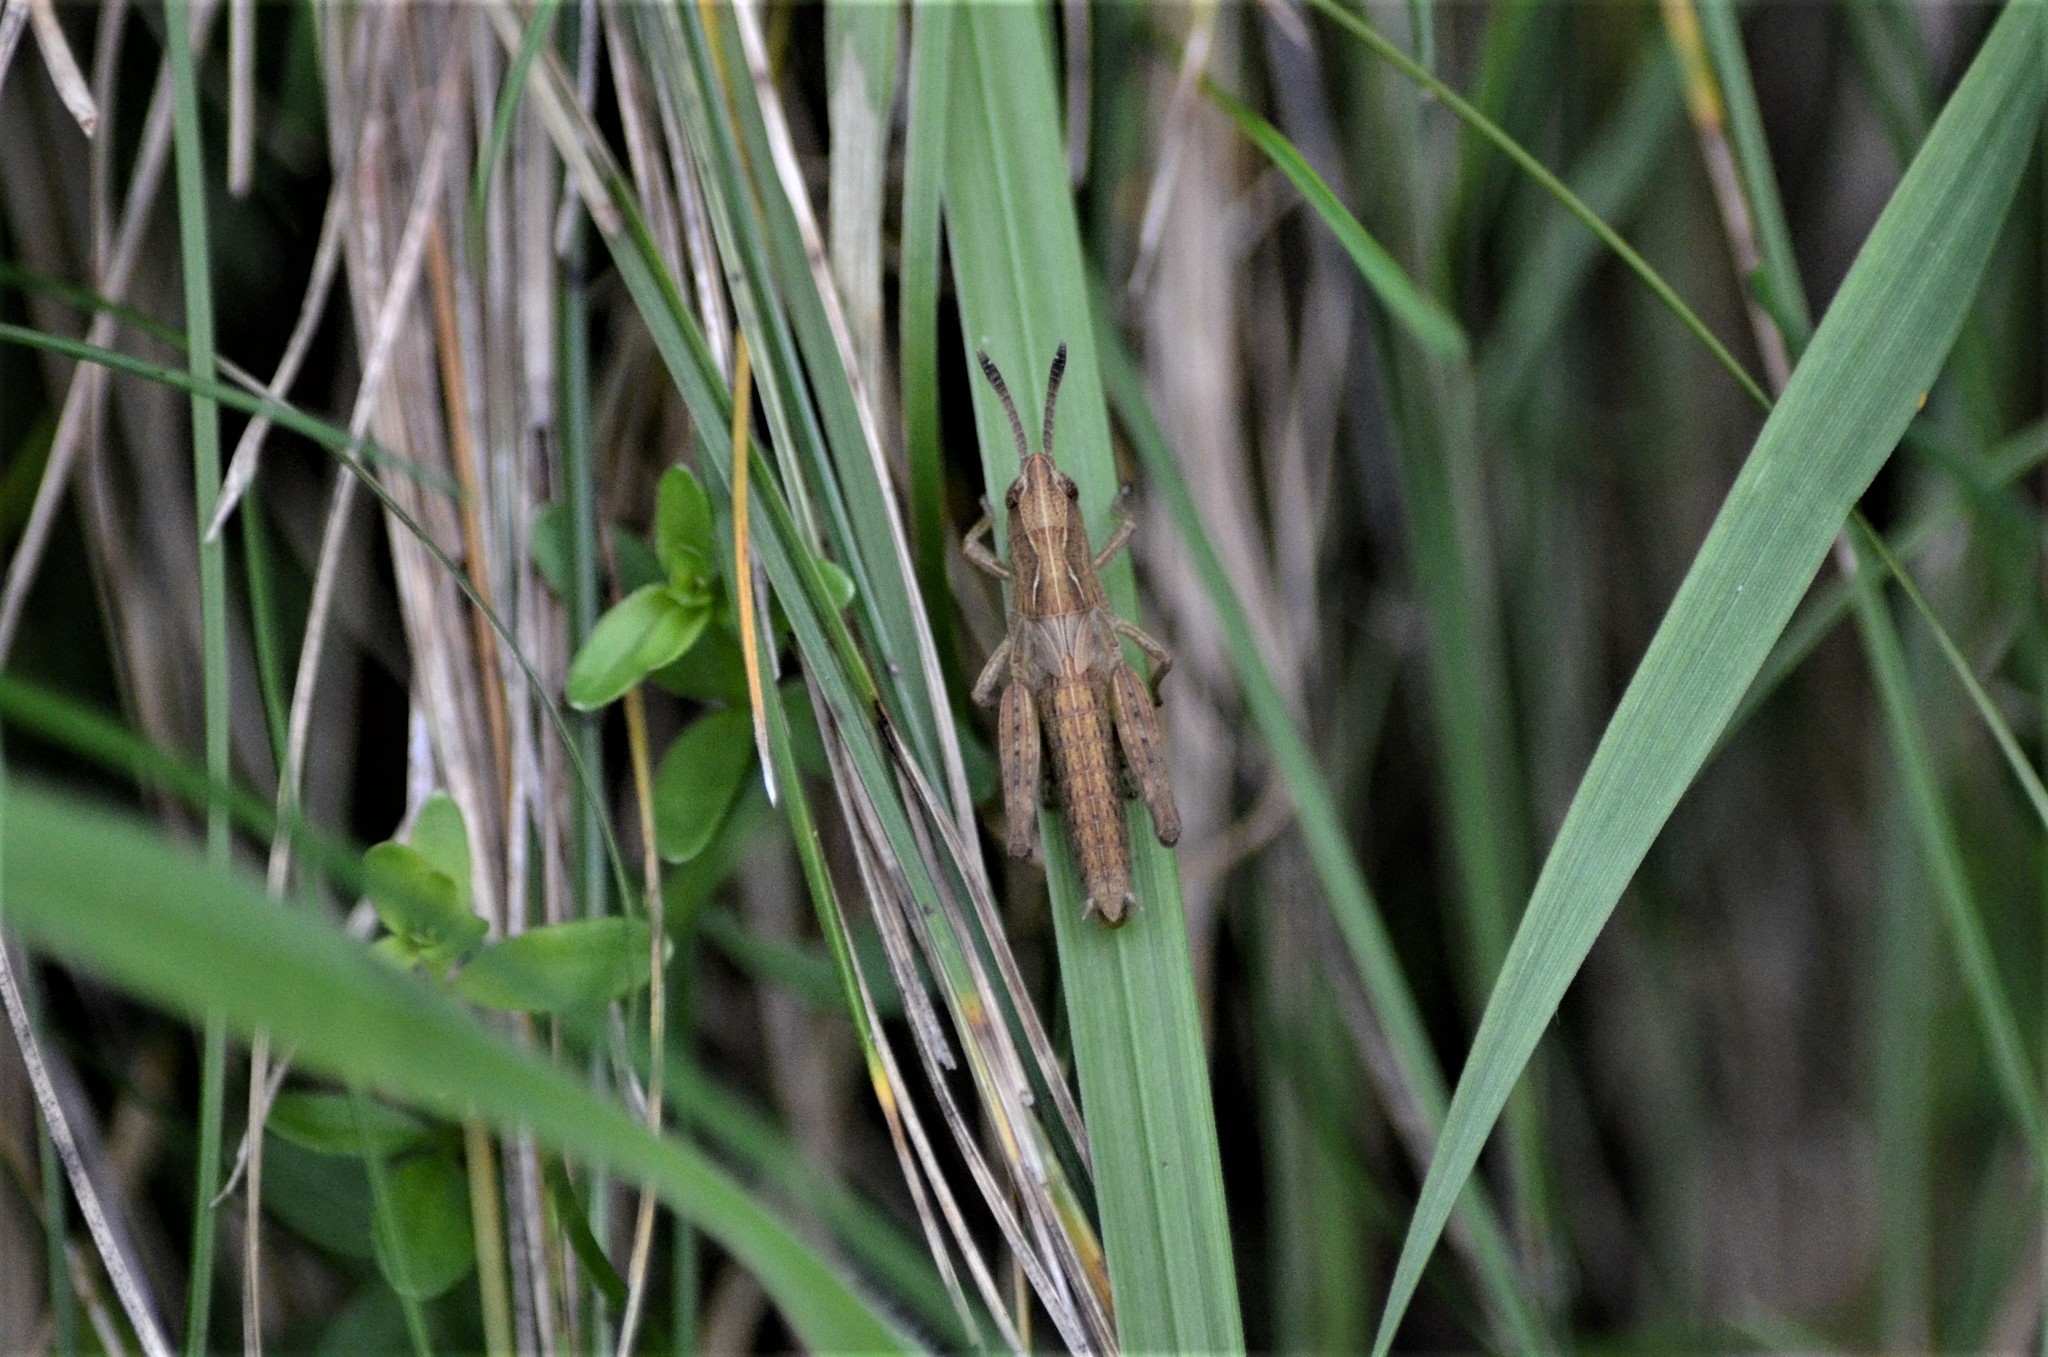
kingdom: Animalia
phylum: Arthropoda
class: Insecta
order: Orthoptera
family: Acrididae
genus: Gomphocerippus
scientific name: Gomphocerippus rufus
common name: Rufous grasshopper
